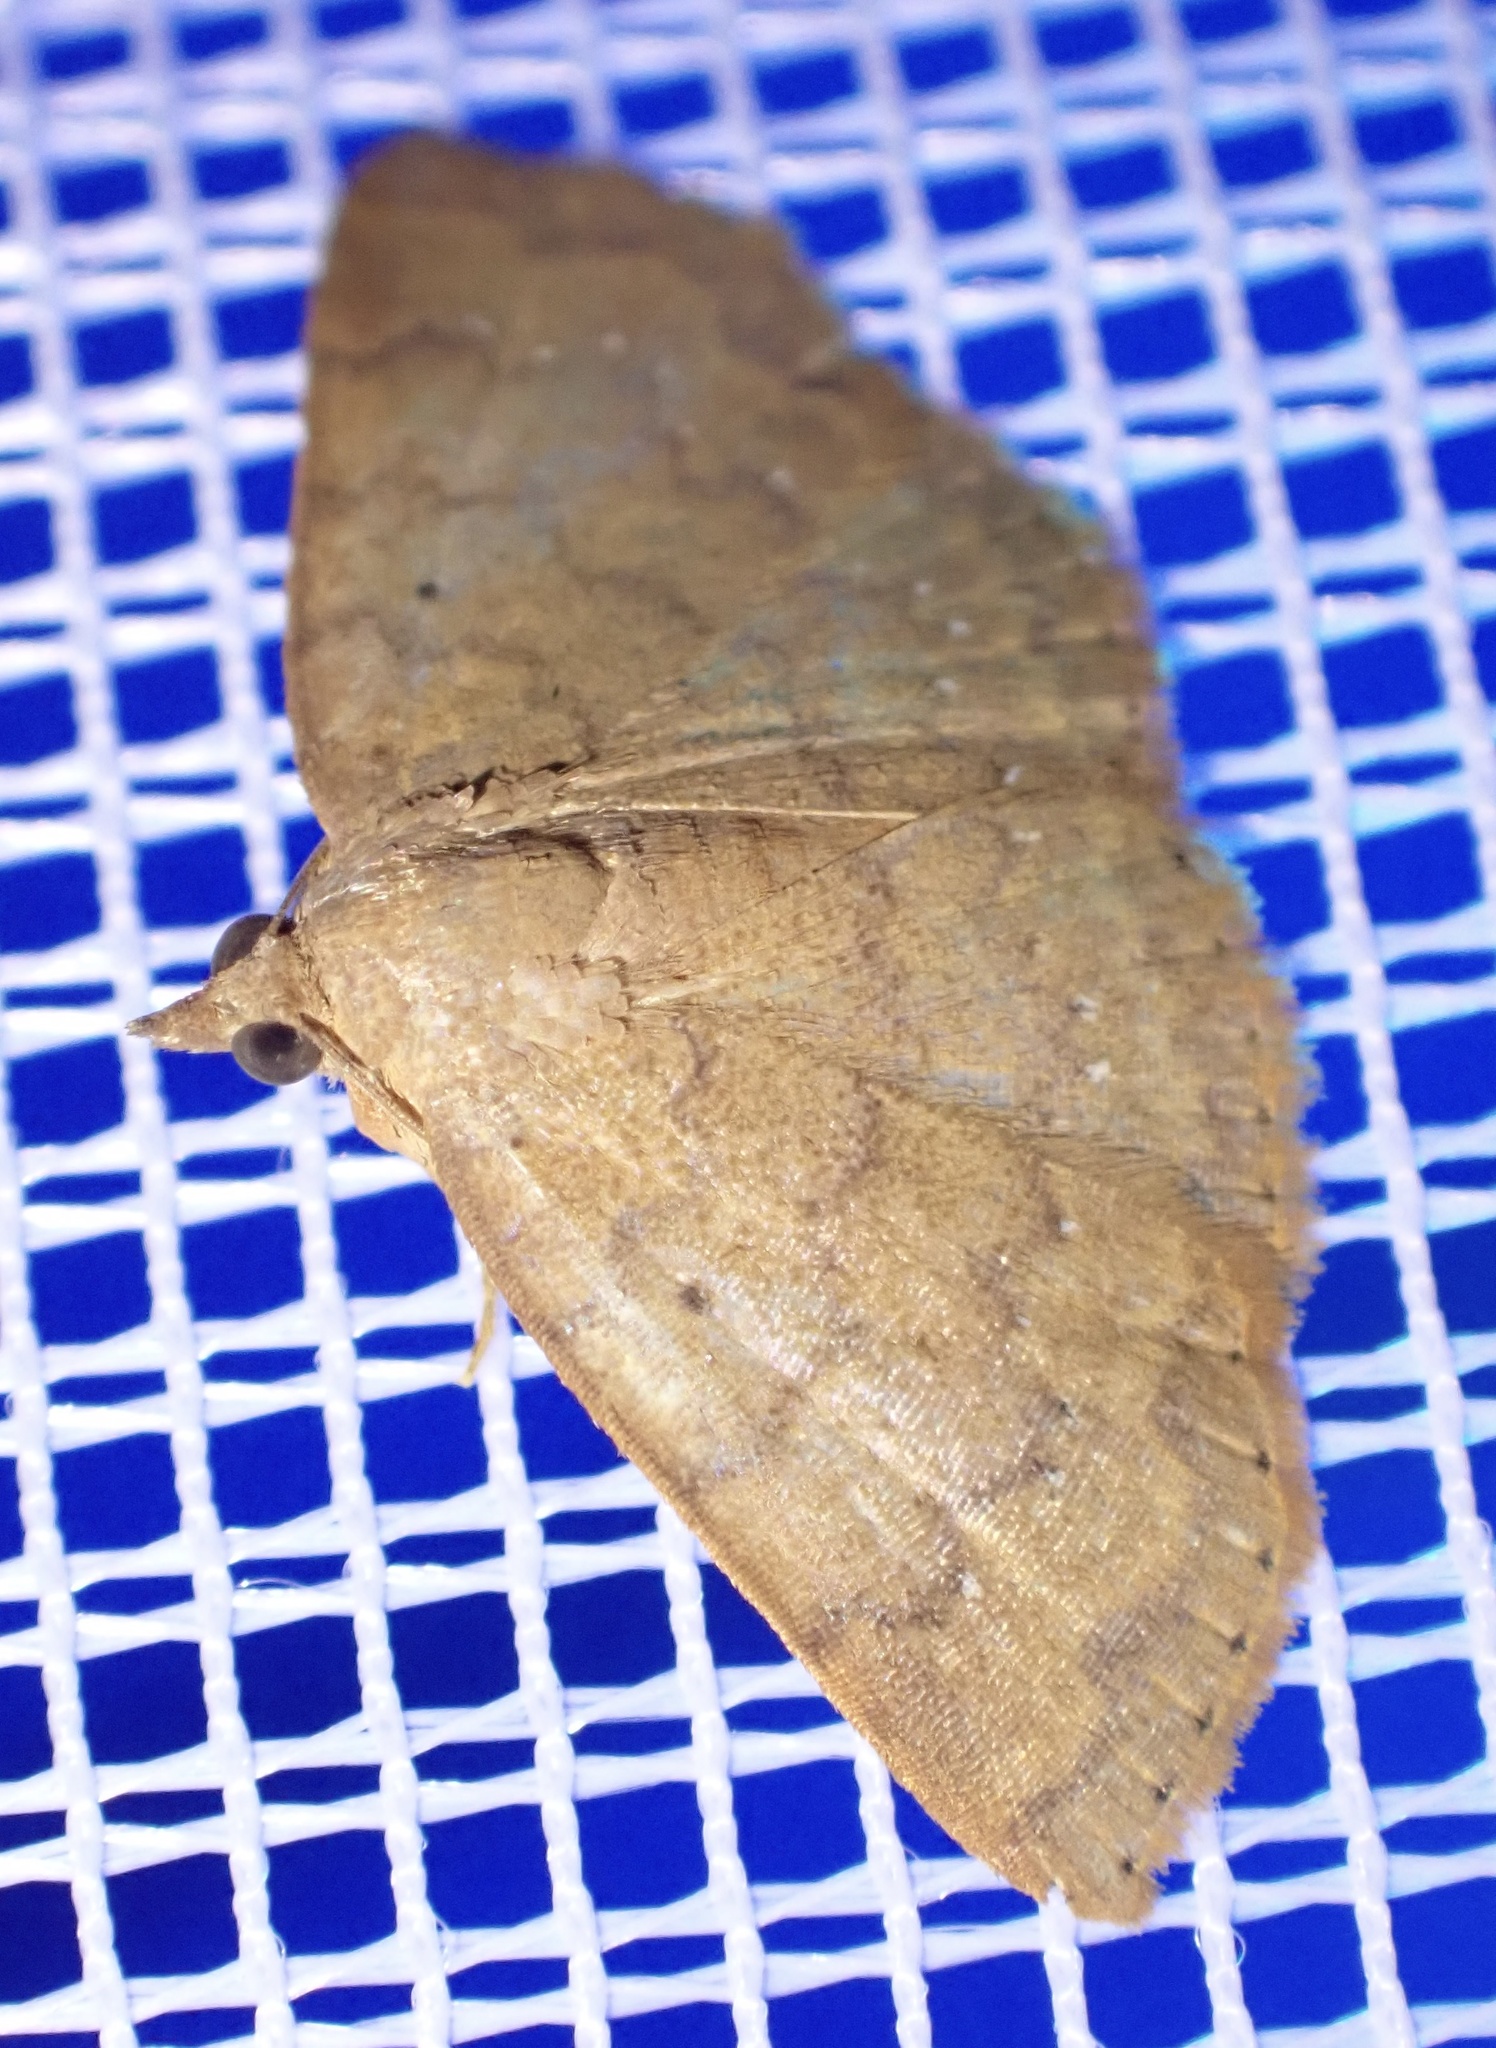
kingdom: Animalia
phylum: Arthropoda
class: Insecta
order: Lepidoptera
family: Erebidae
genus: Corgatha
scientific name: Corgatha wojtusiaki
